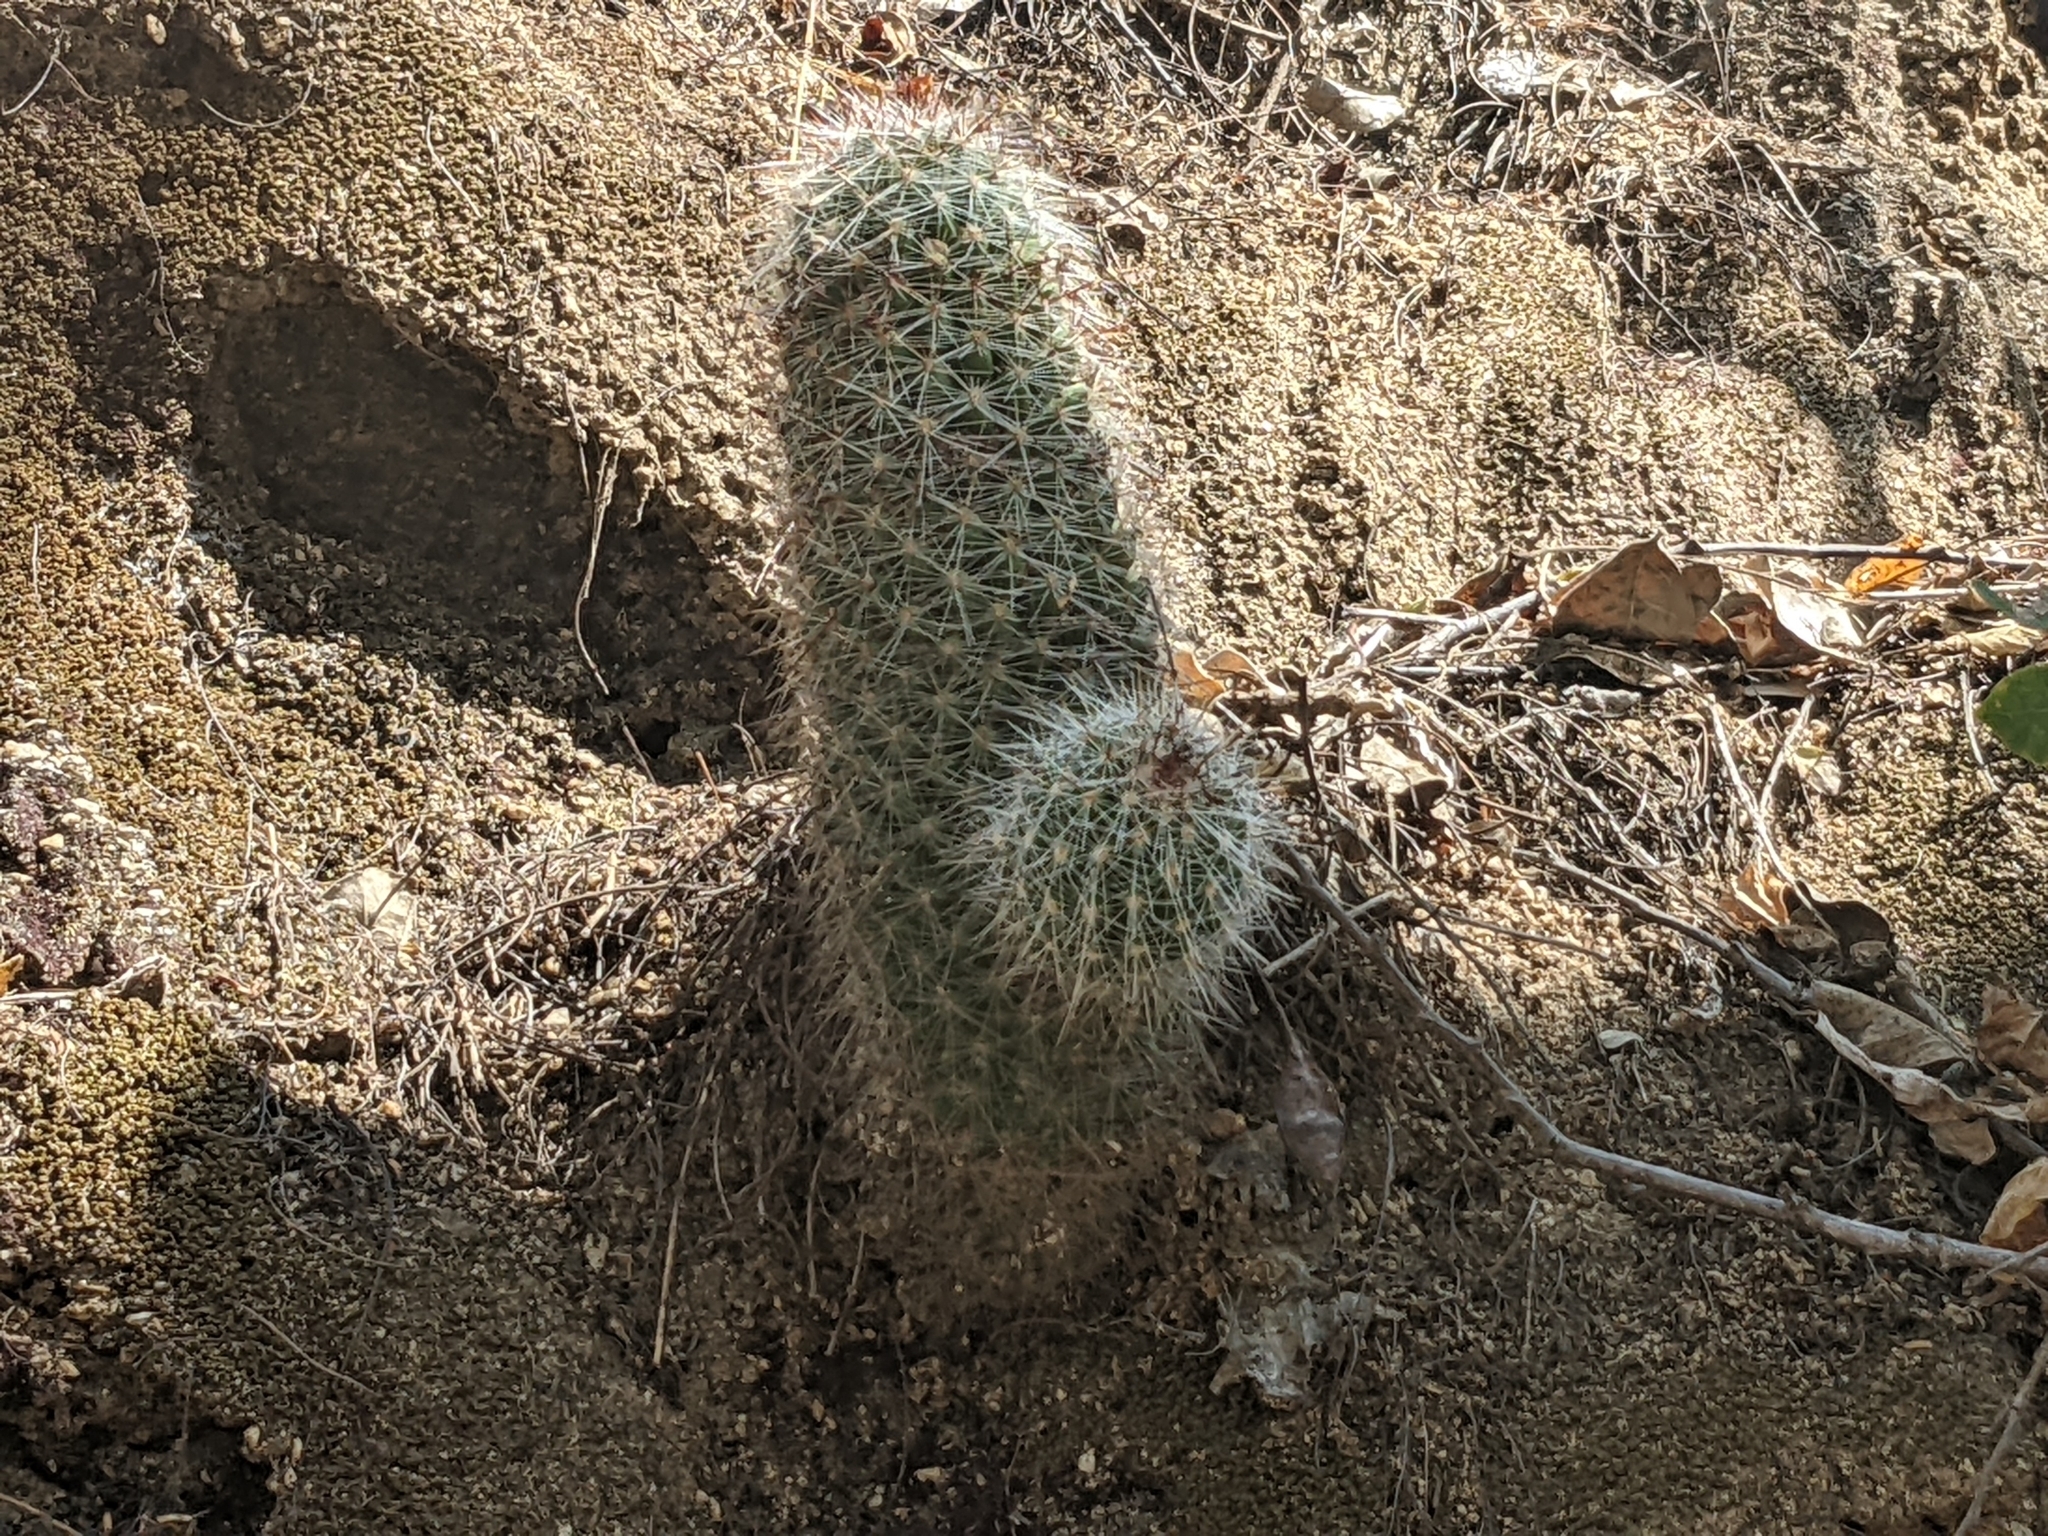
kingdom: Plantae
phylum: Tracheophyta
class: Magnoliopsida
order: Caryophyllales
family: Cactaceae
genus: Cochemiea
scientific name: Cochemiea phitauiana
